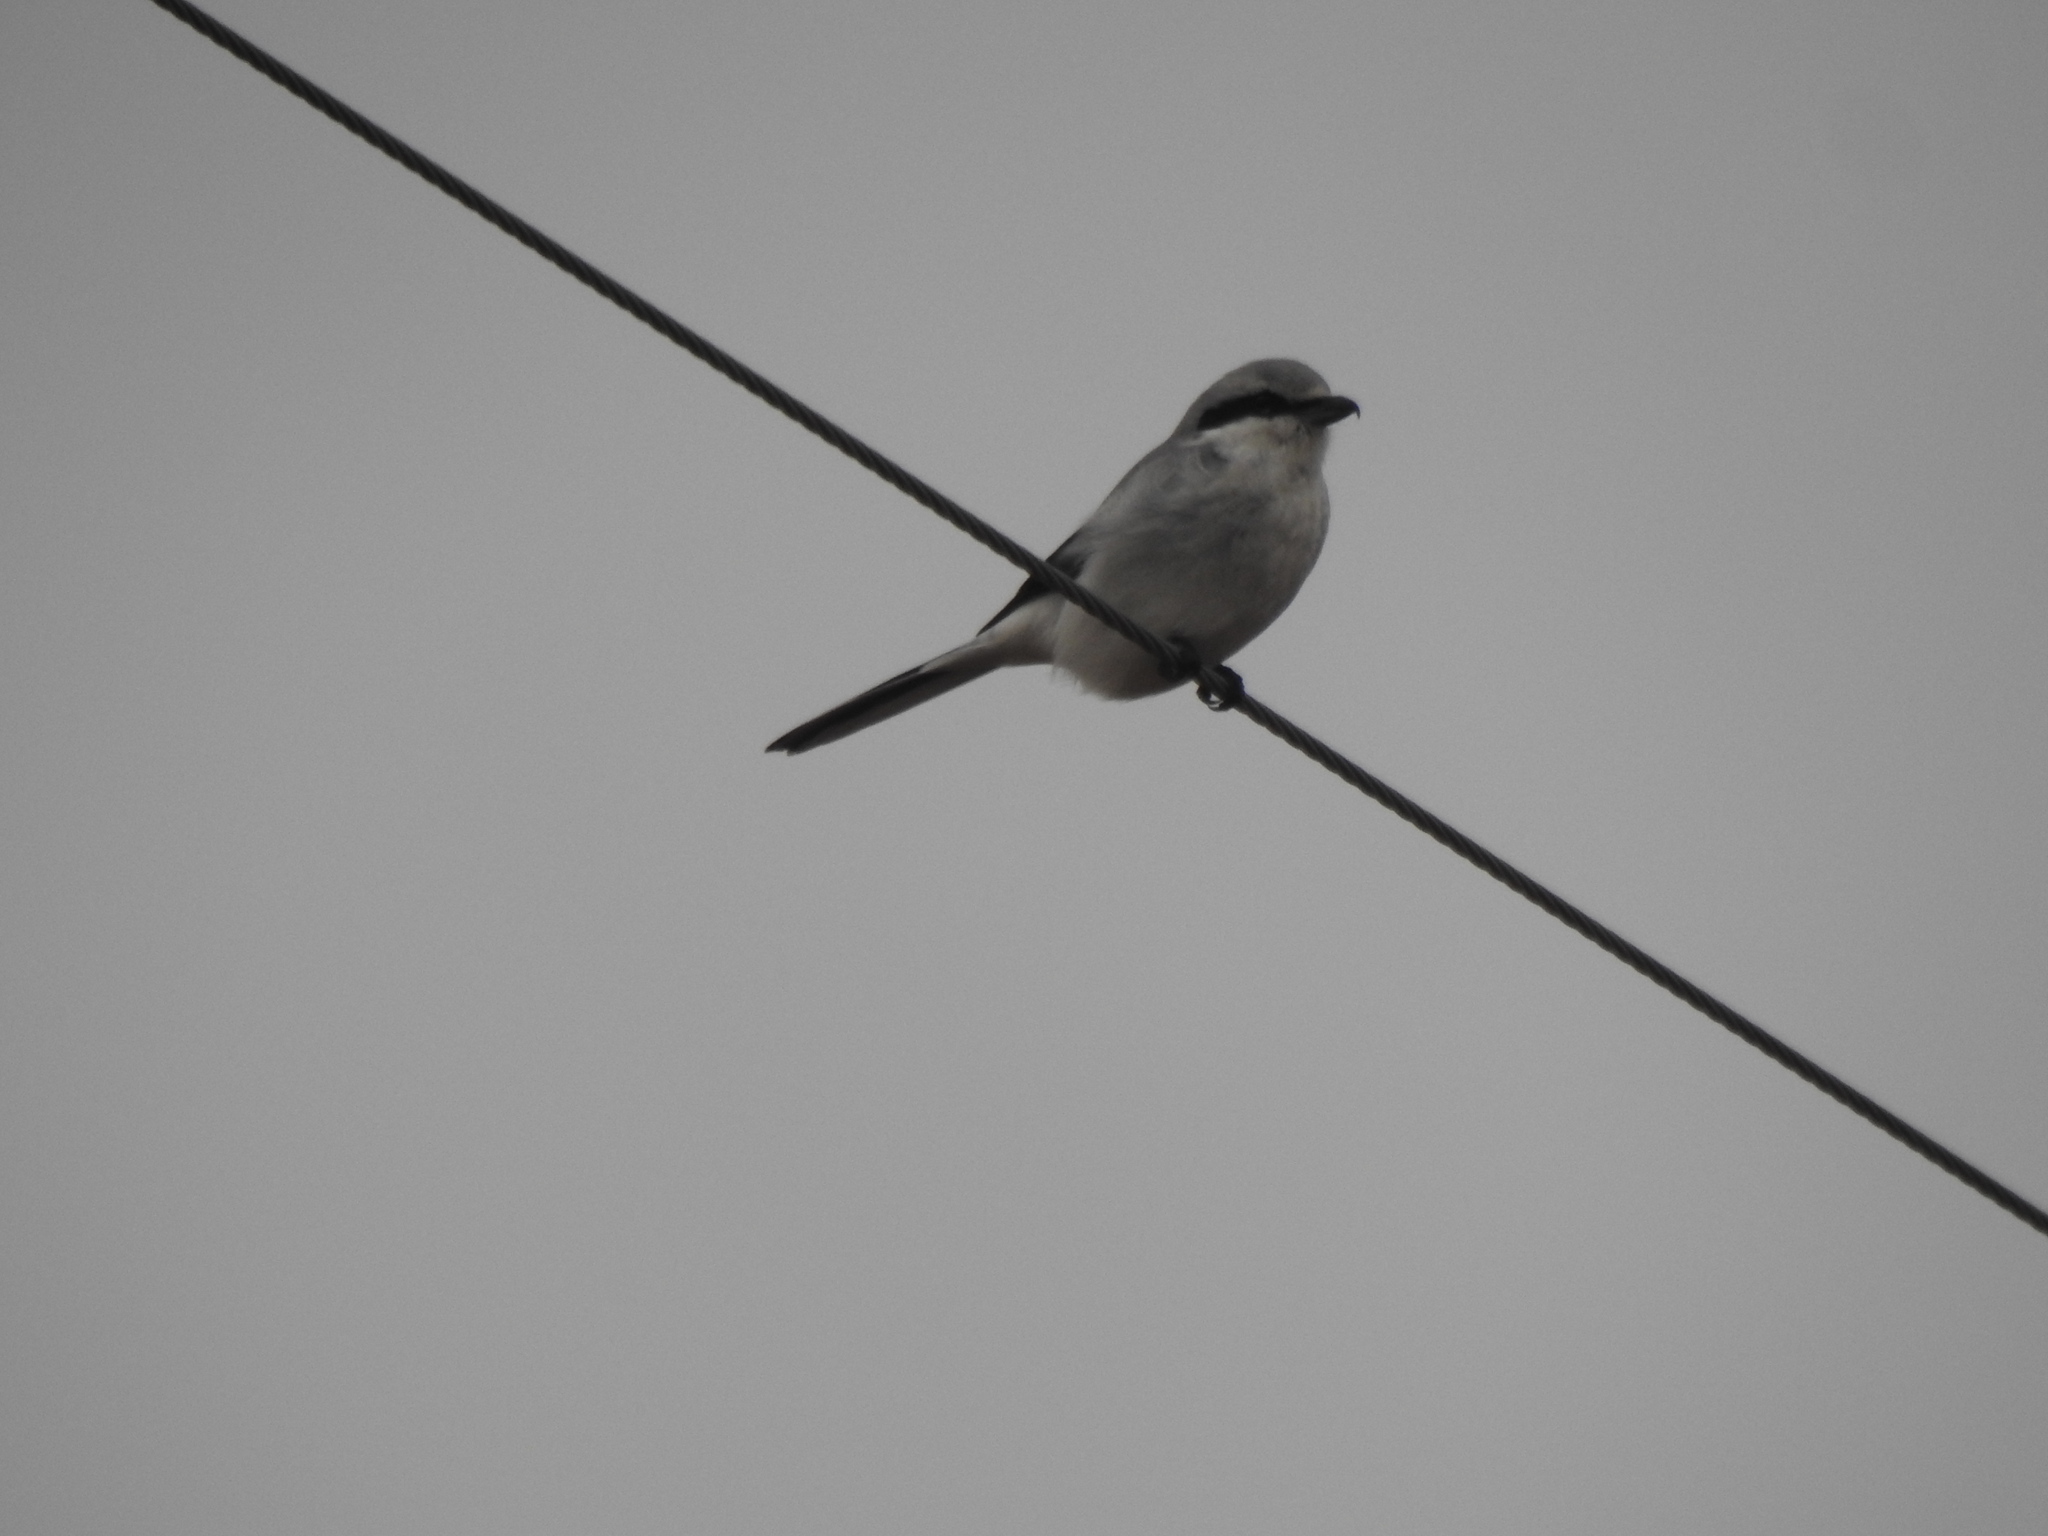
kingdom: Animalia
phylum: Chordata
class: Aves
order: Passeriformes
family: Laniidae
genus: Lanius
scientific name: Lanius borealis
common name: Northern shrike
